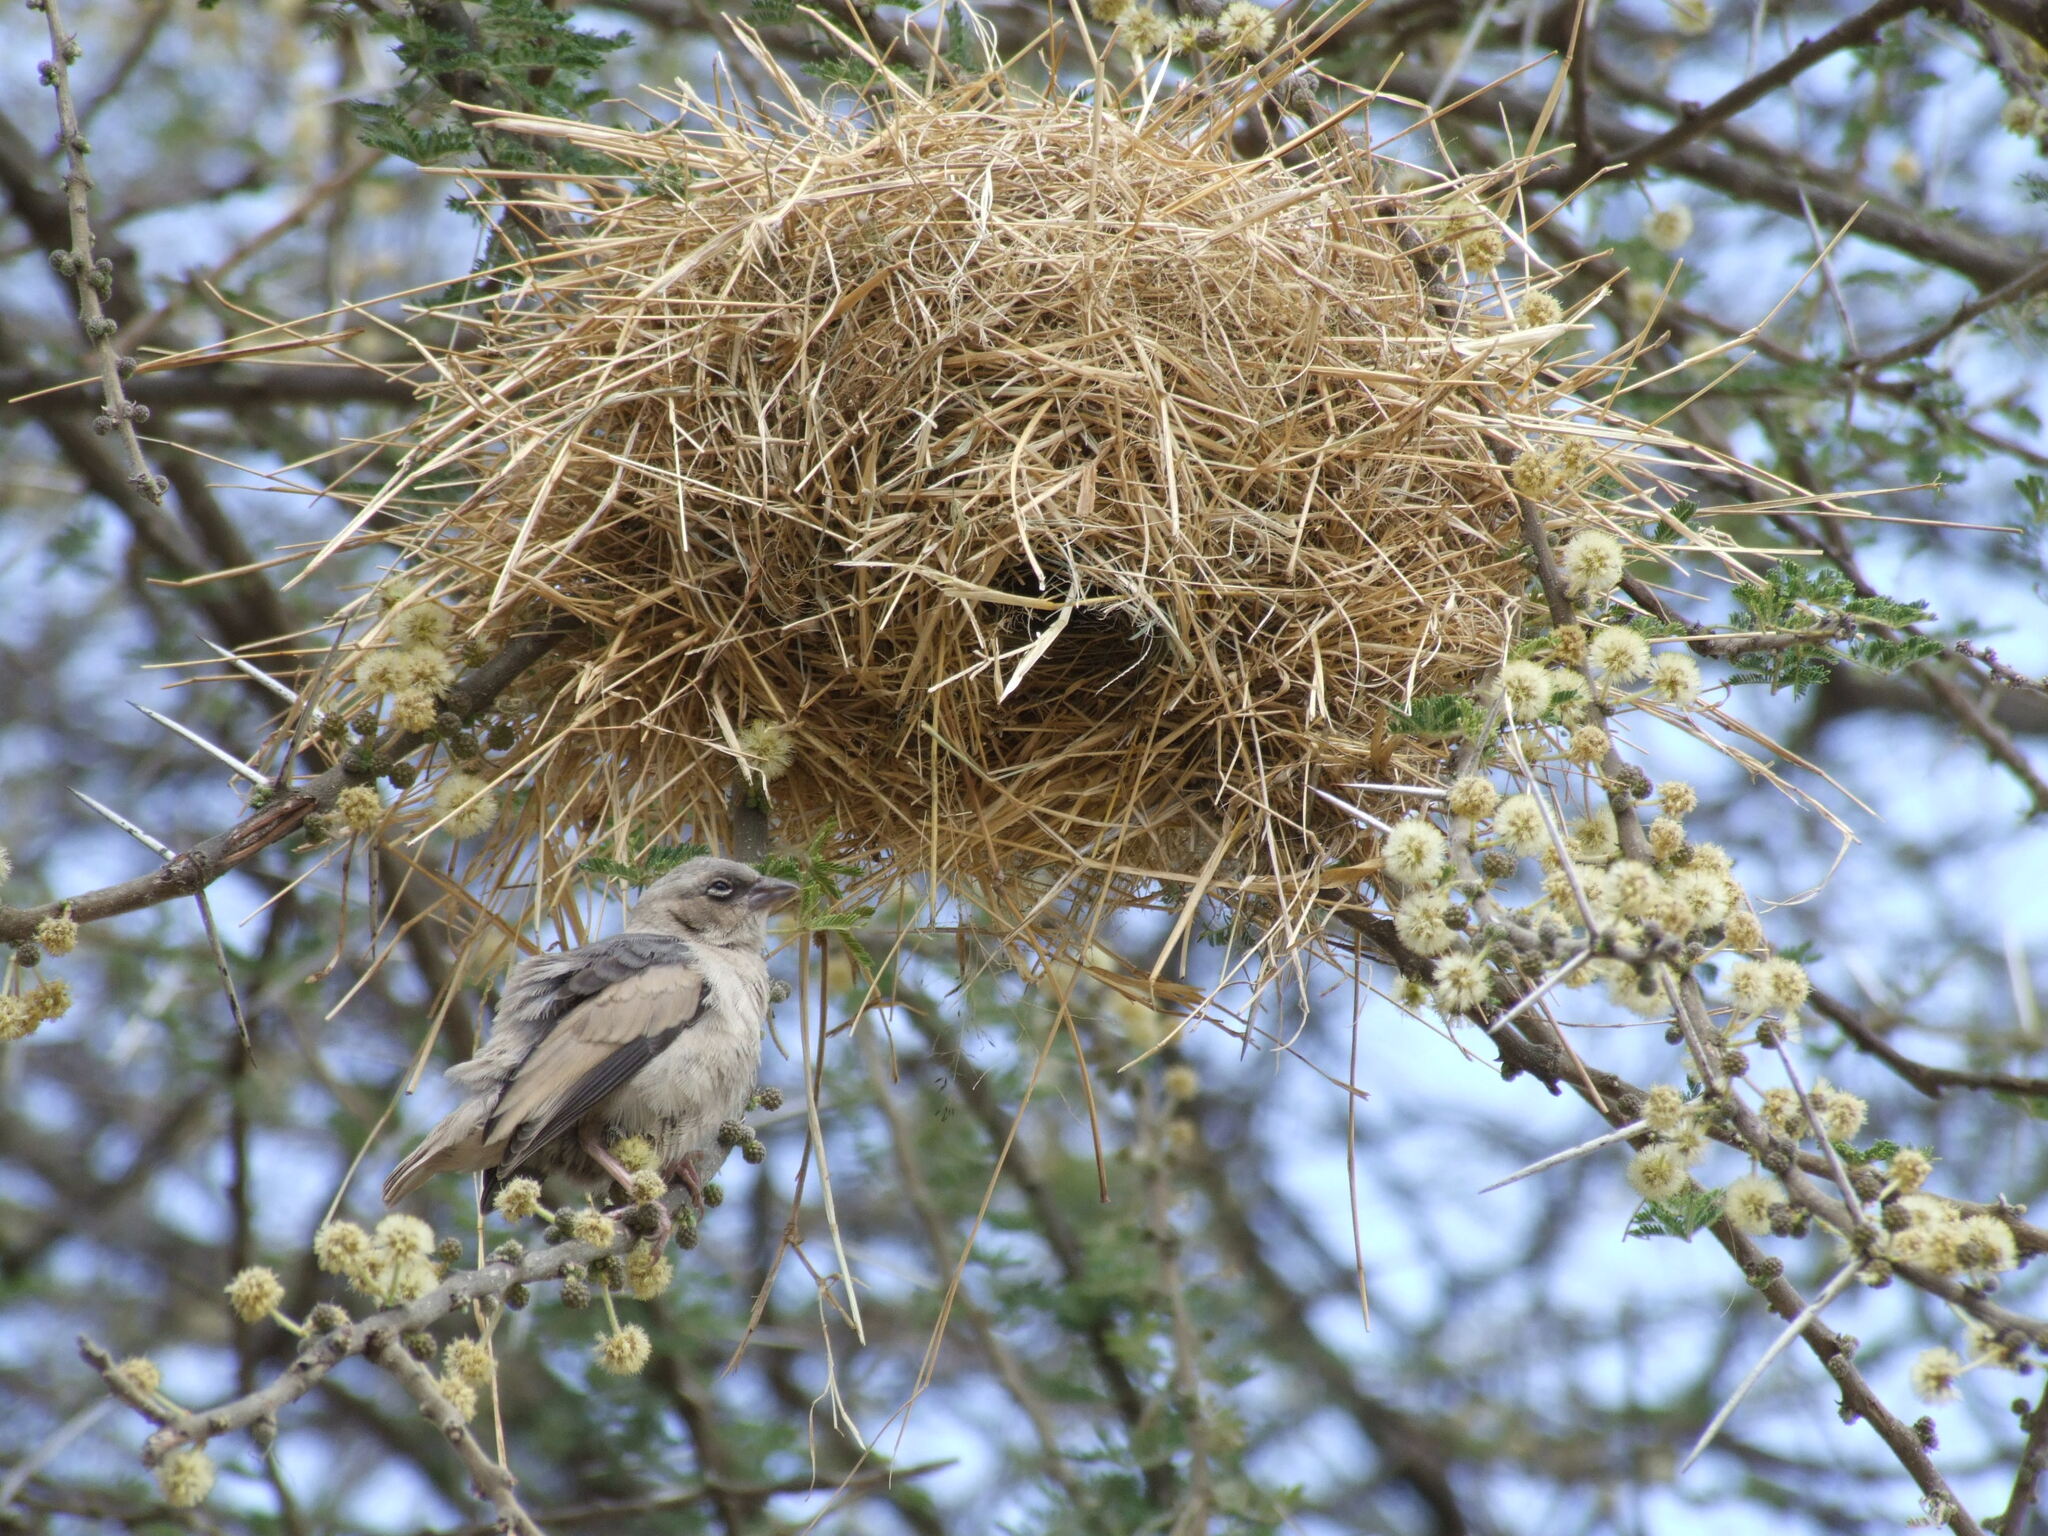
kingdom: Animalia
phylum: Chordata
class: Aves
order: Passeriformes
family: Passeridae
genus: Pseudonigrita
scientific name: Pseudonigrita arnaudi
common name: Grey-capped social weaver
